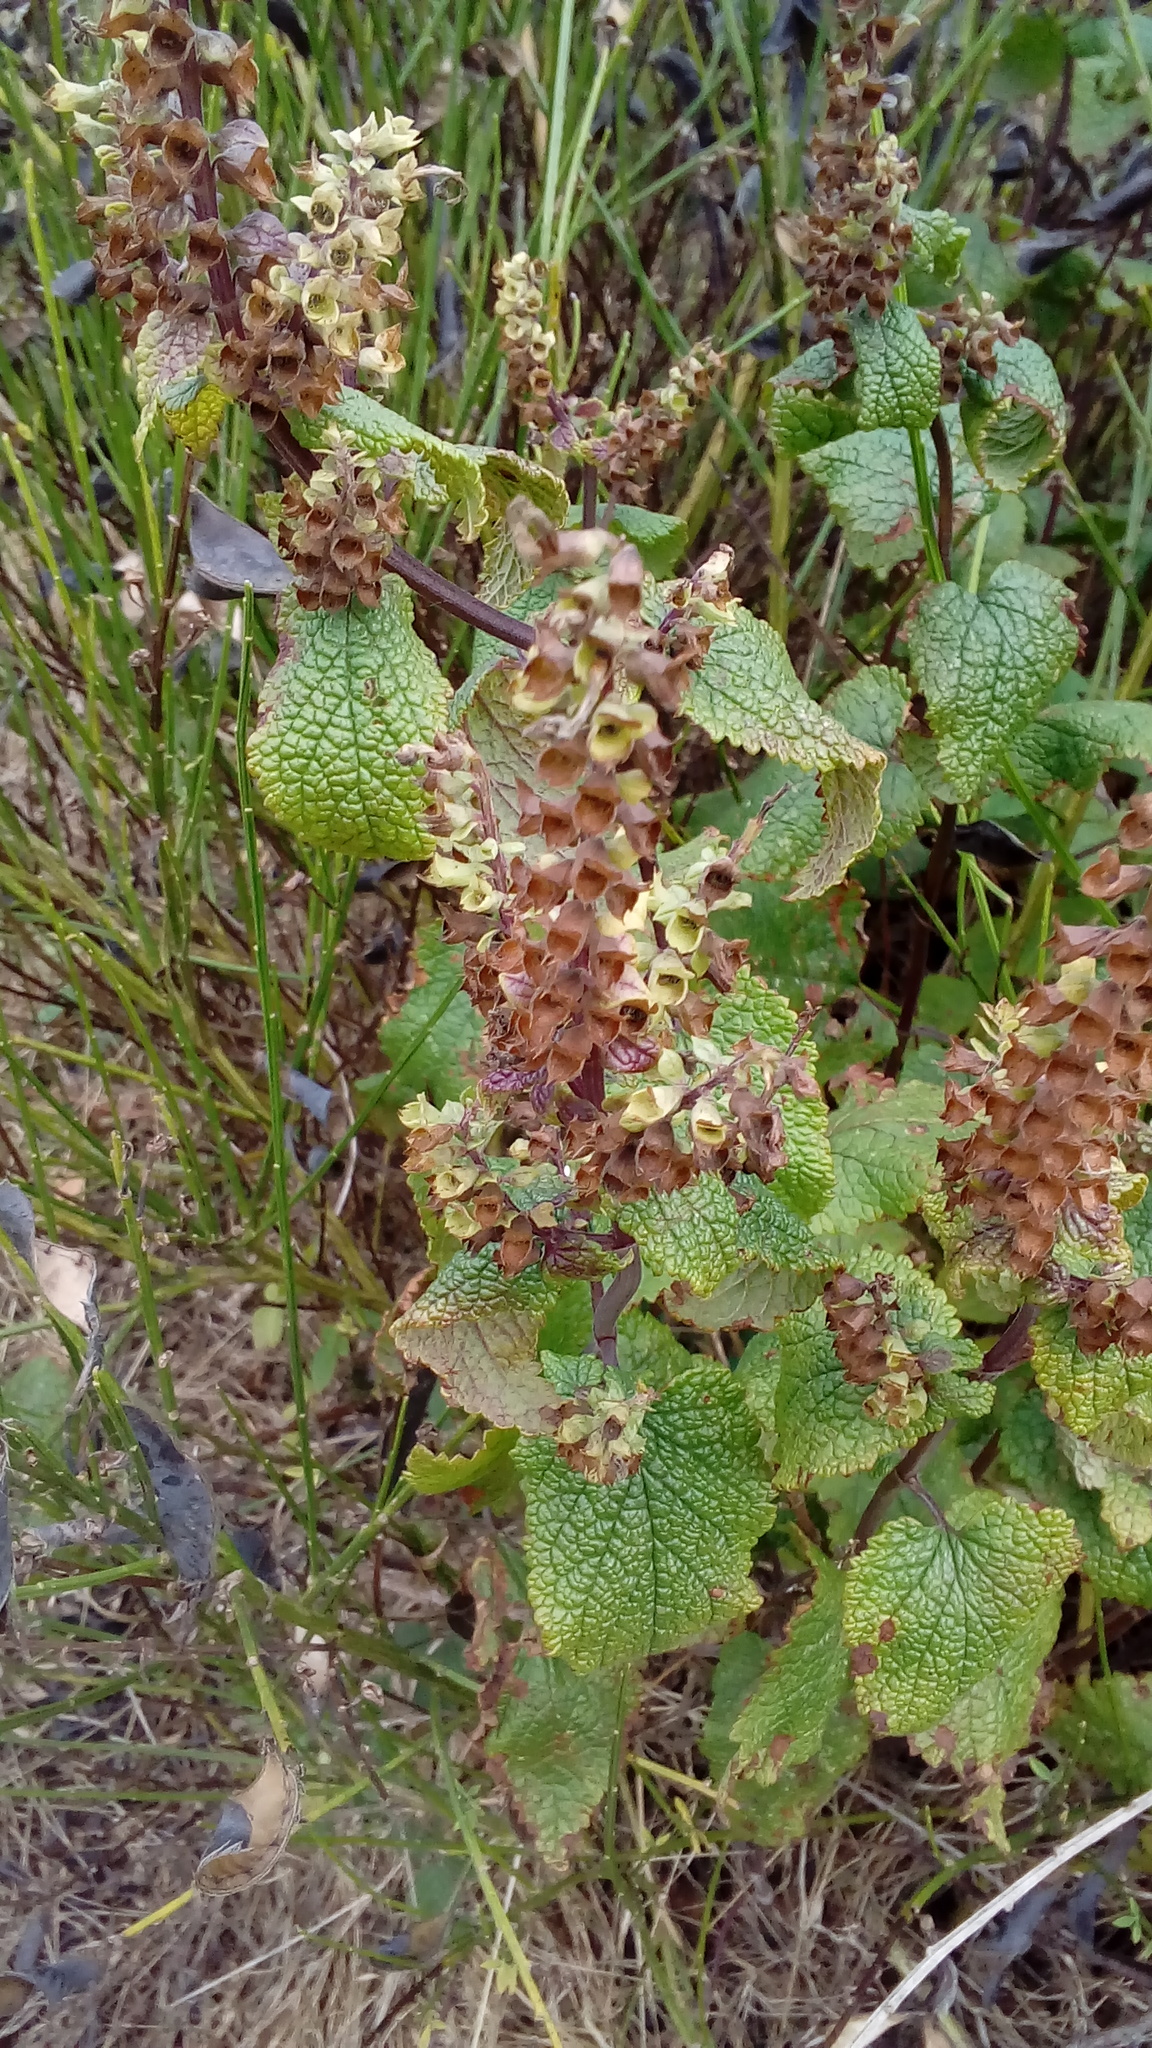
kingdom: Plantae
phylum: Tracheophyta
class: Magnoliopsida
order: Lamiales
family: Lamiaceae
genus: Teucrium
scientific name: Teucrium scorodonia
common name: Woodland germander
